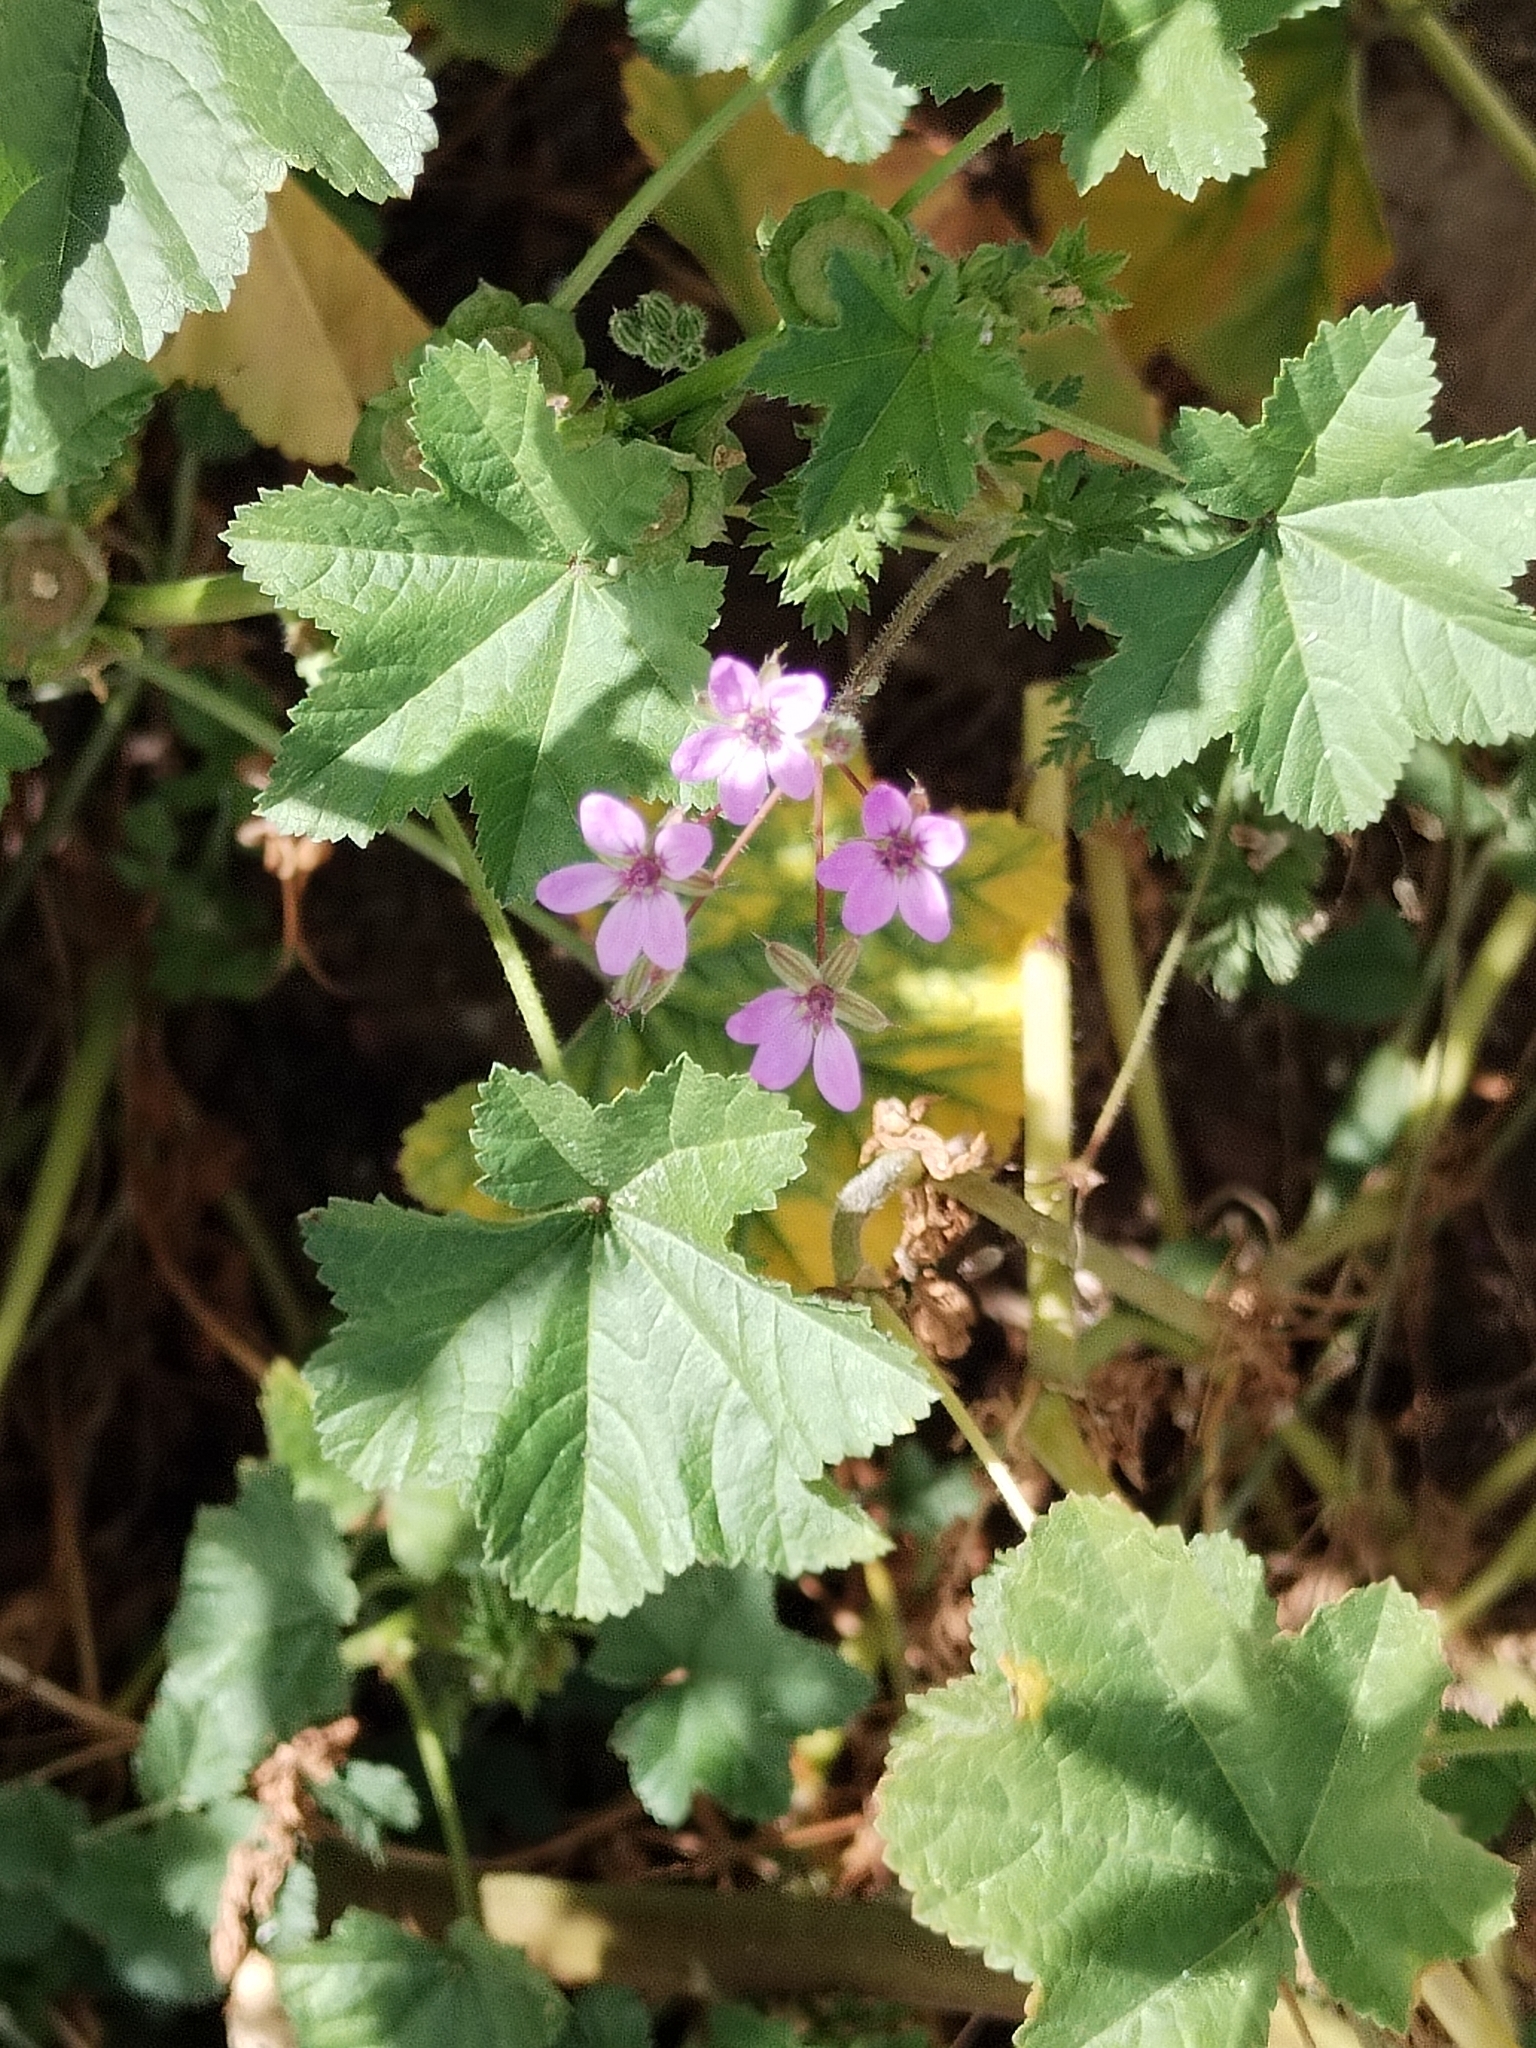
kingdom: Plantae
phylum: Tracheophyta
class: Magnoliopsida
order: Geraniales
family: Geraniaceae
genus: Erodium
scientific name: Erodium cicutarium
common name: Common stork's-bill
